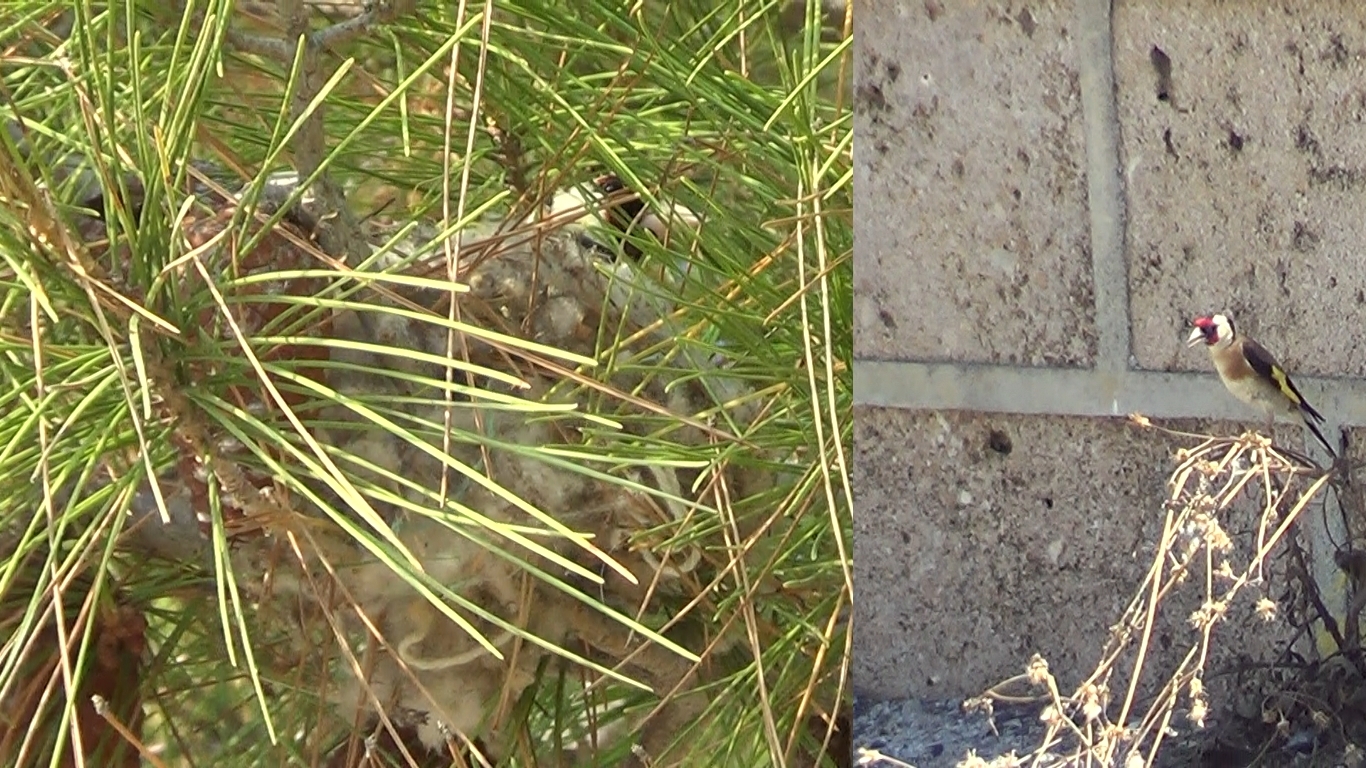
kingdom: Animalia
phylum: Chordata
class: Aves
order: Passeriformes
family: Fringillidae
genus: Carduelis
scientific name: Carduelis carduelis
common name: European goldfinch
